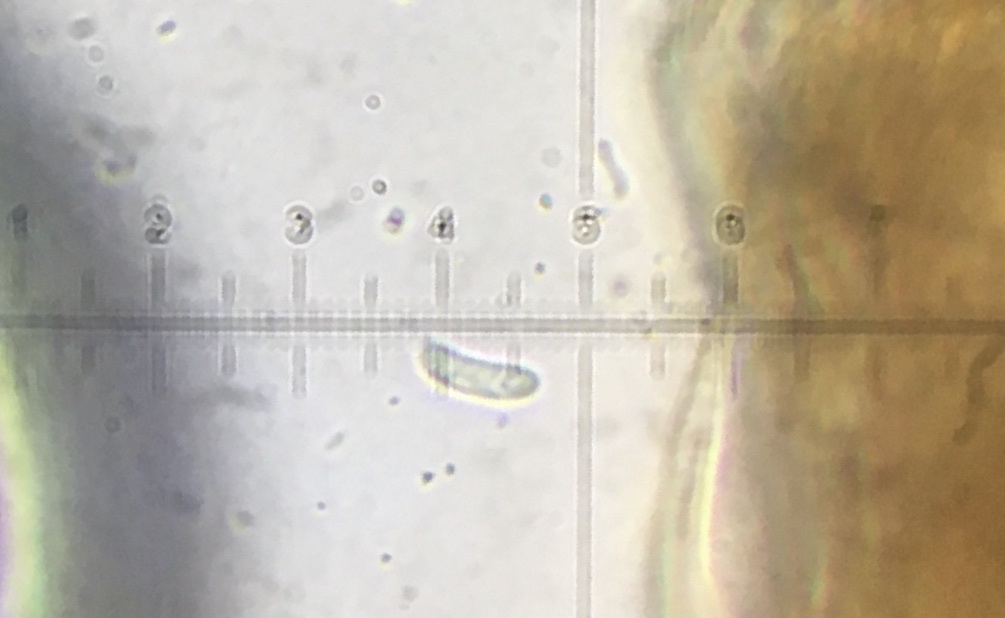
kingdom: Fungi
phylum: Basidiomycota
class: Agaricomycetes
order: Agaricales
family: Niaceae
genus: Merismodes
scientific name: Merismodes fasciculata
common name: Crowded cuplet
